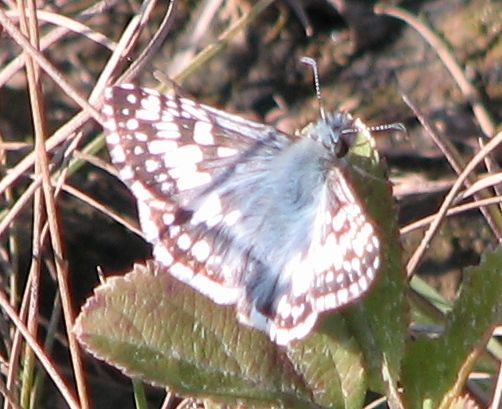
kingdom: Animalia
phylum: Arthropoda
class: Insecta
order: Lepidoptera
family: Hesperiidae
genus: Burnsius
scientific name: Burnsius communis
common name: Common checkered-skipper
